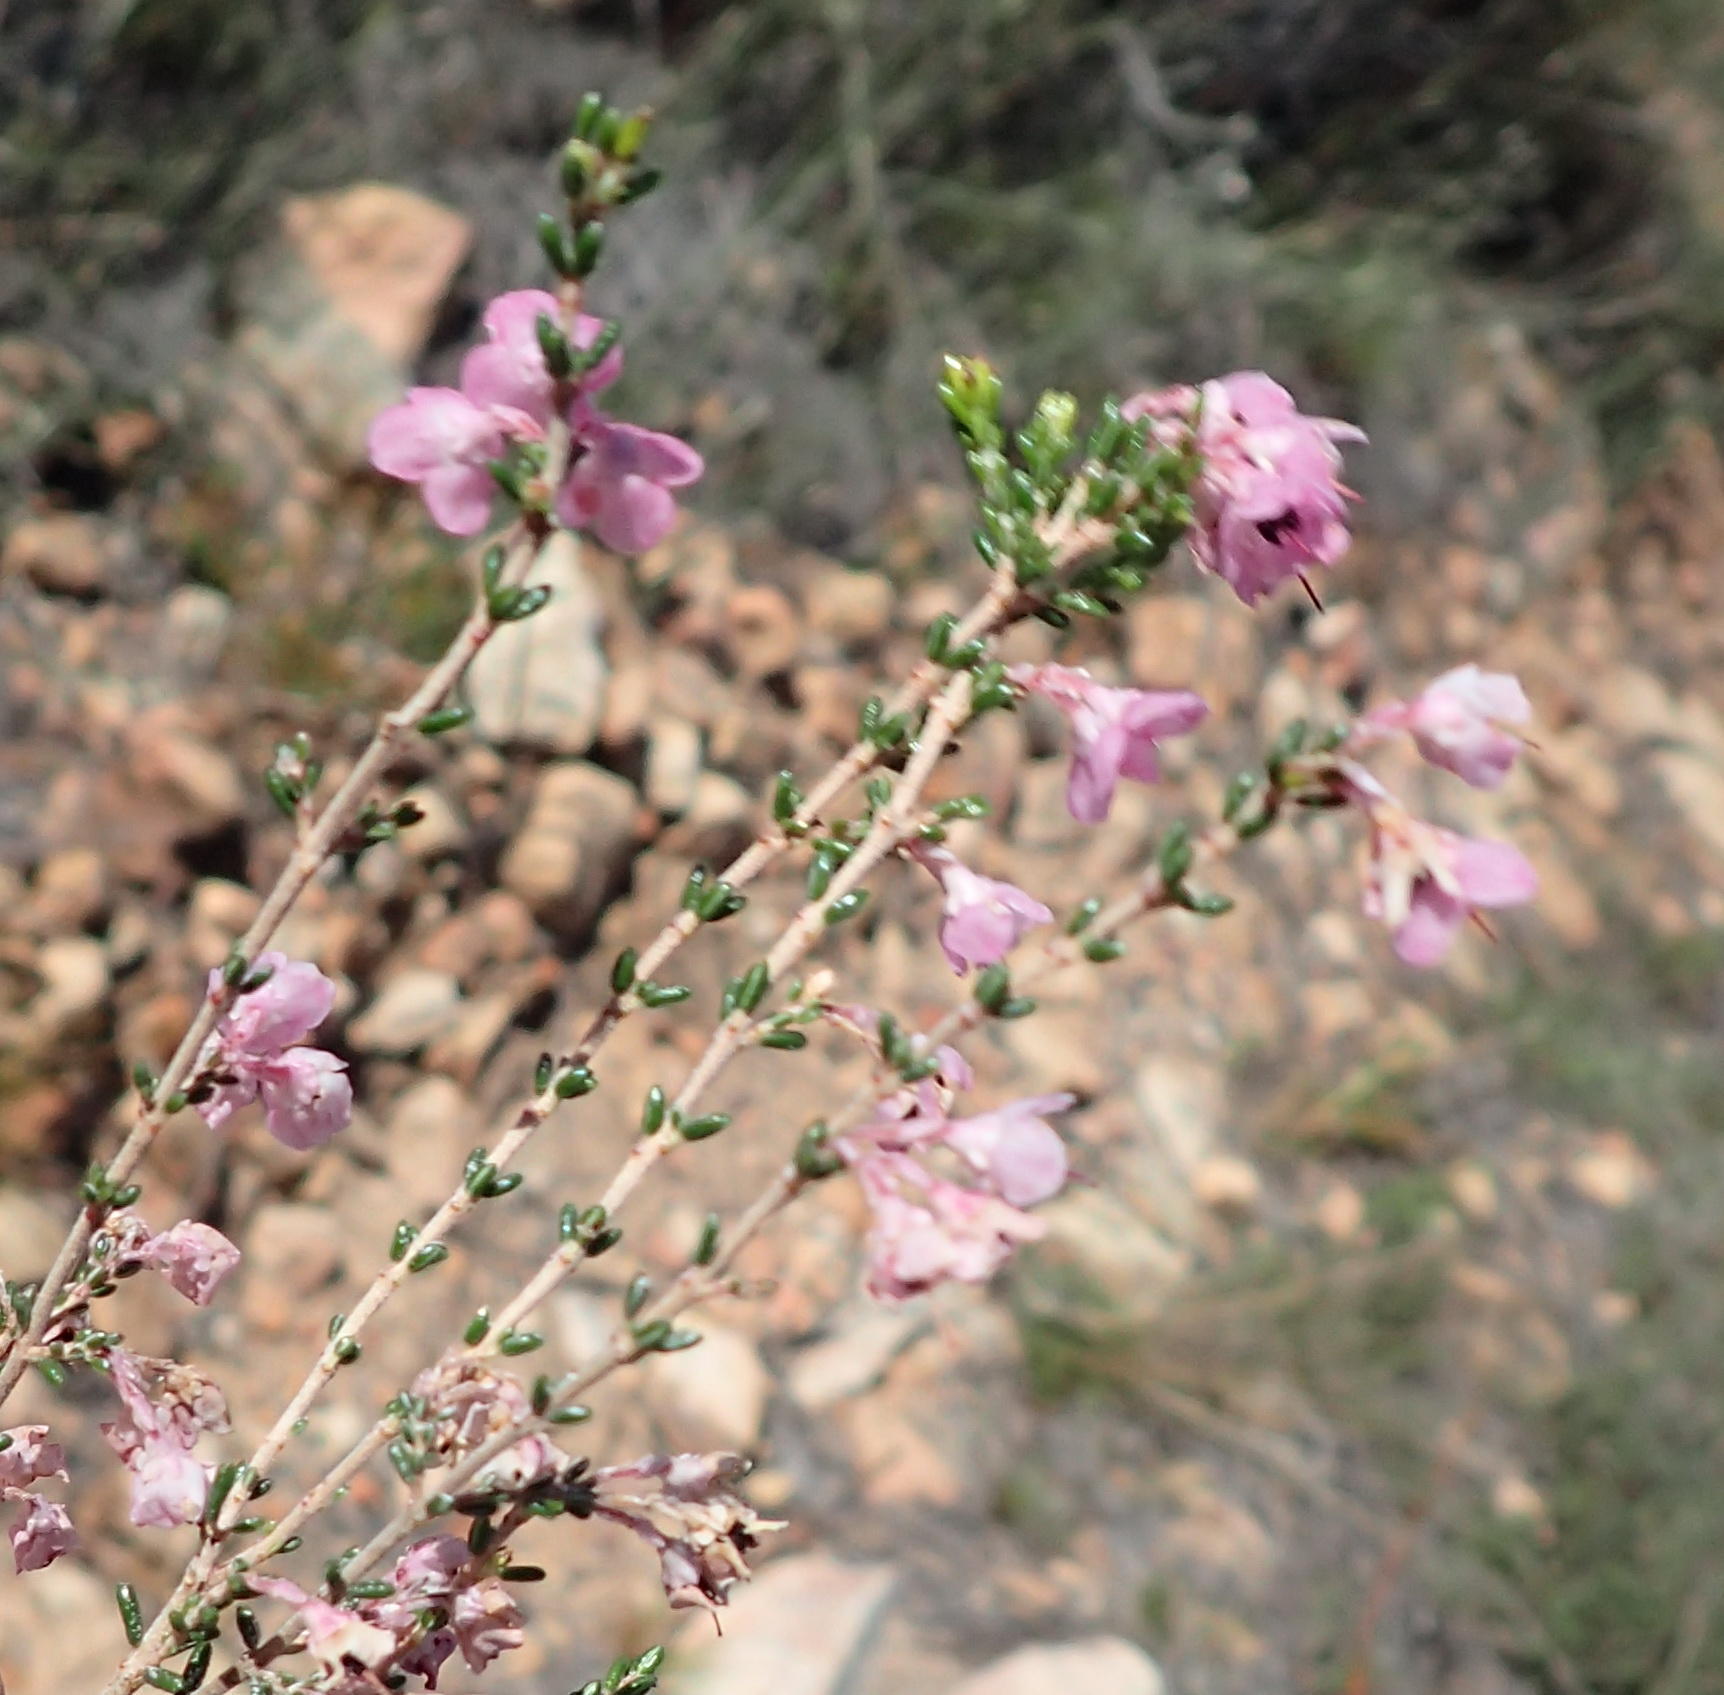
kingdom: Plantae
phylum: Tracheophyta
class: Magnoliopsida
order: Ericales
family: Ericaceae
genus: Erica
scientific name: Erica melanthera
